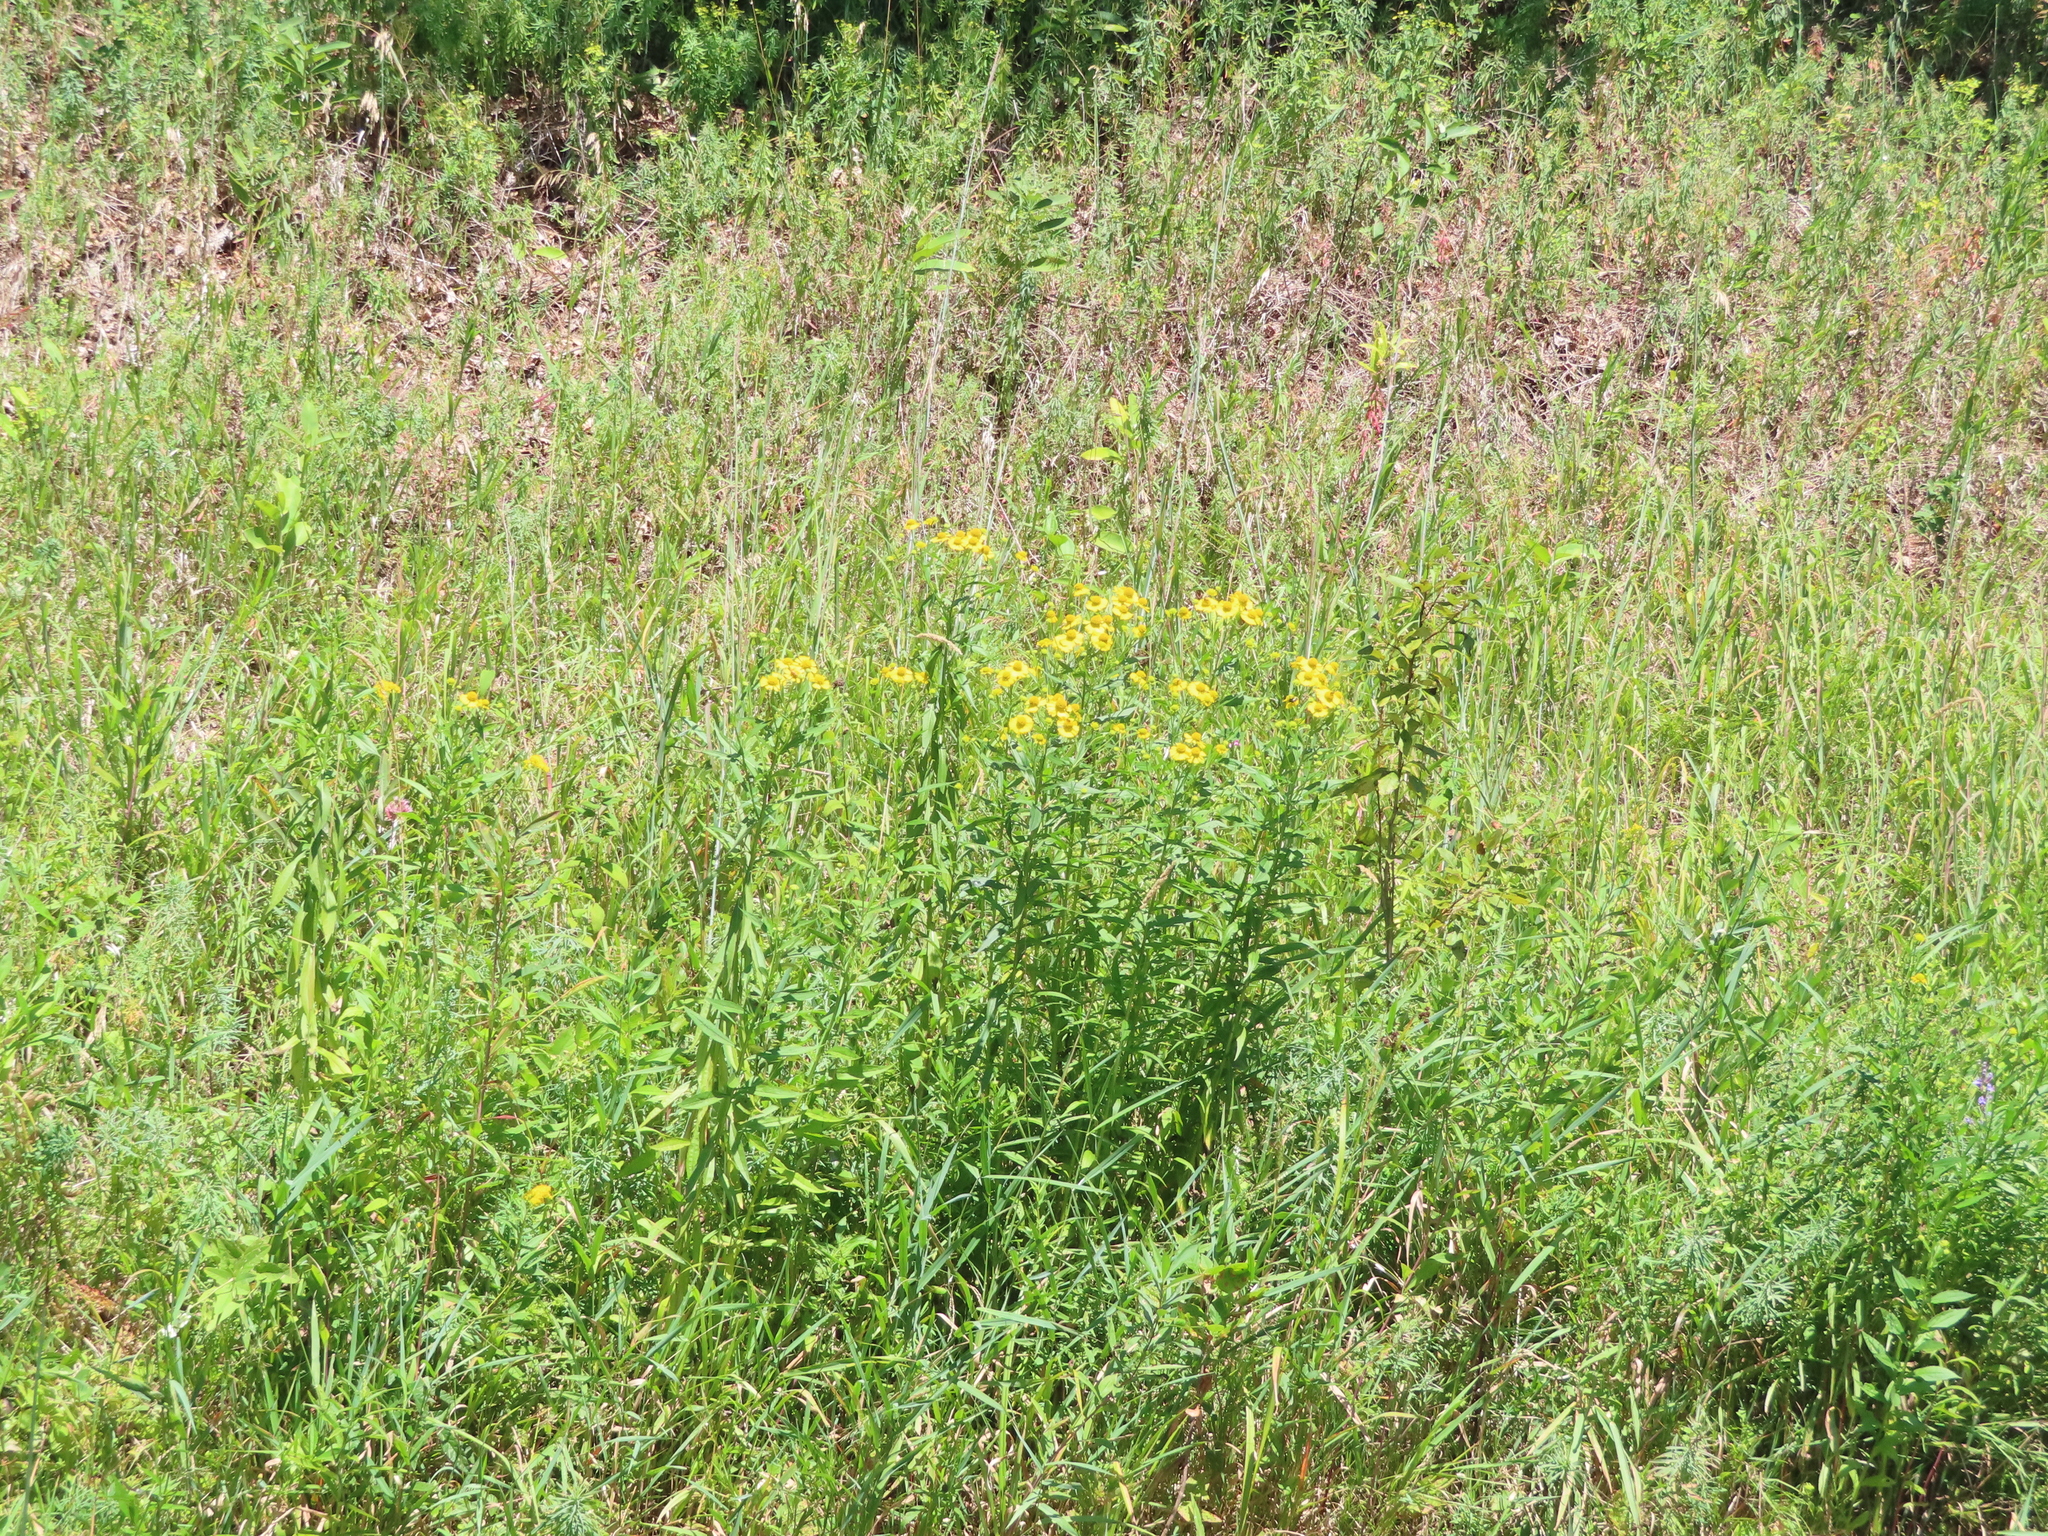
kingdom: Plantae
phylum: Tracheophyta
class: Magnoliopsida
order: Asterales
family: Asteraceae
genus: Helenium
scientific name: Helenium autumnale
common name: Sneezeweed
